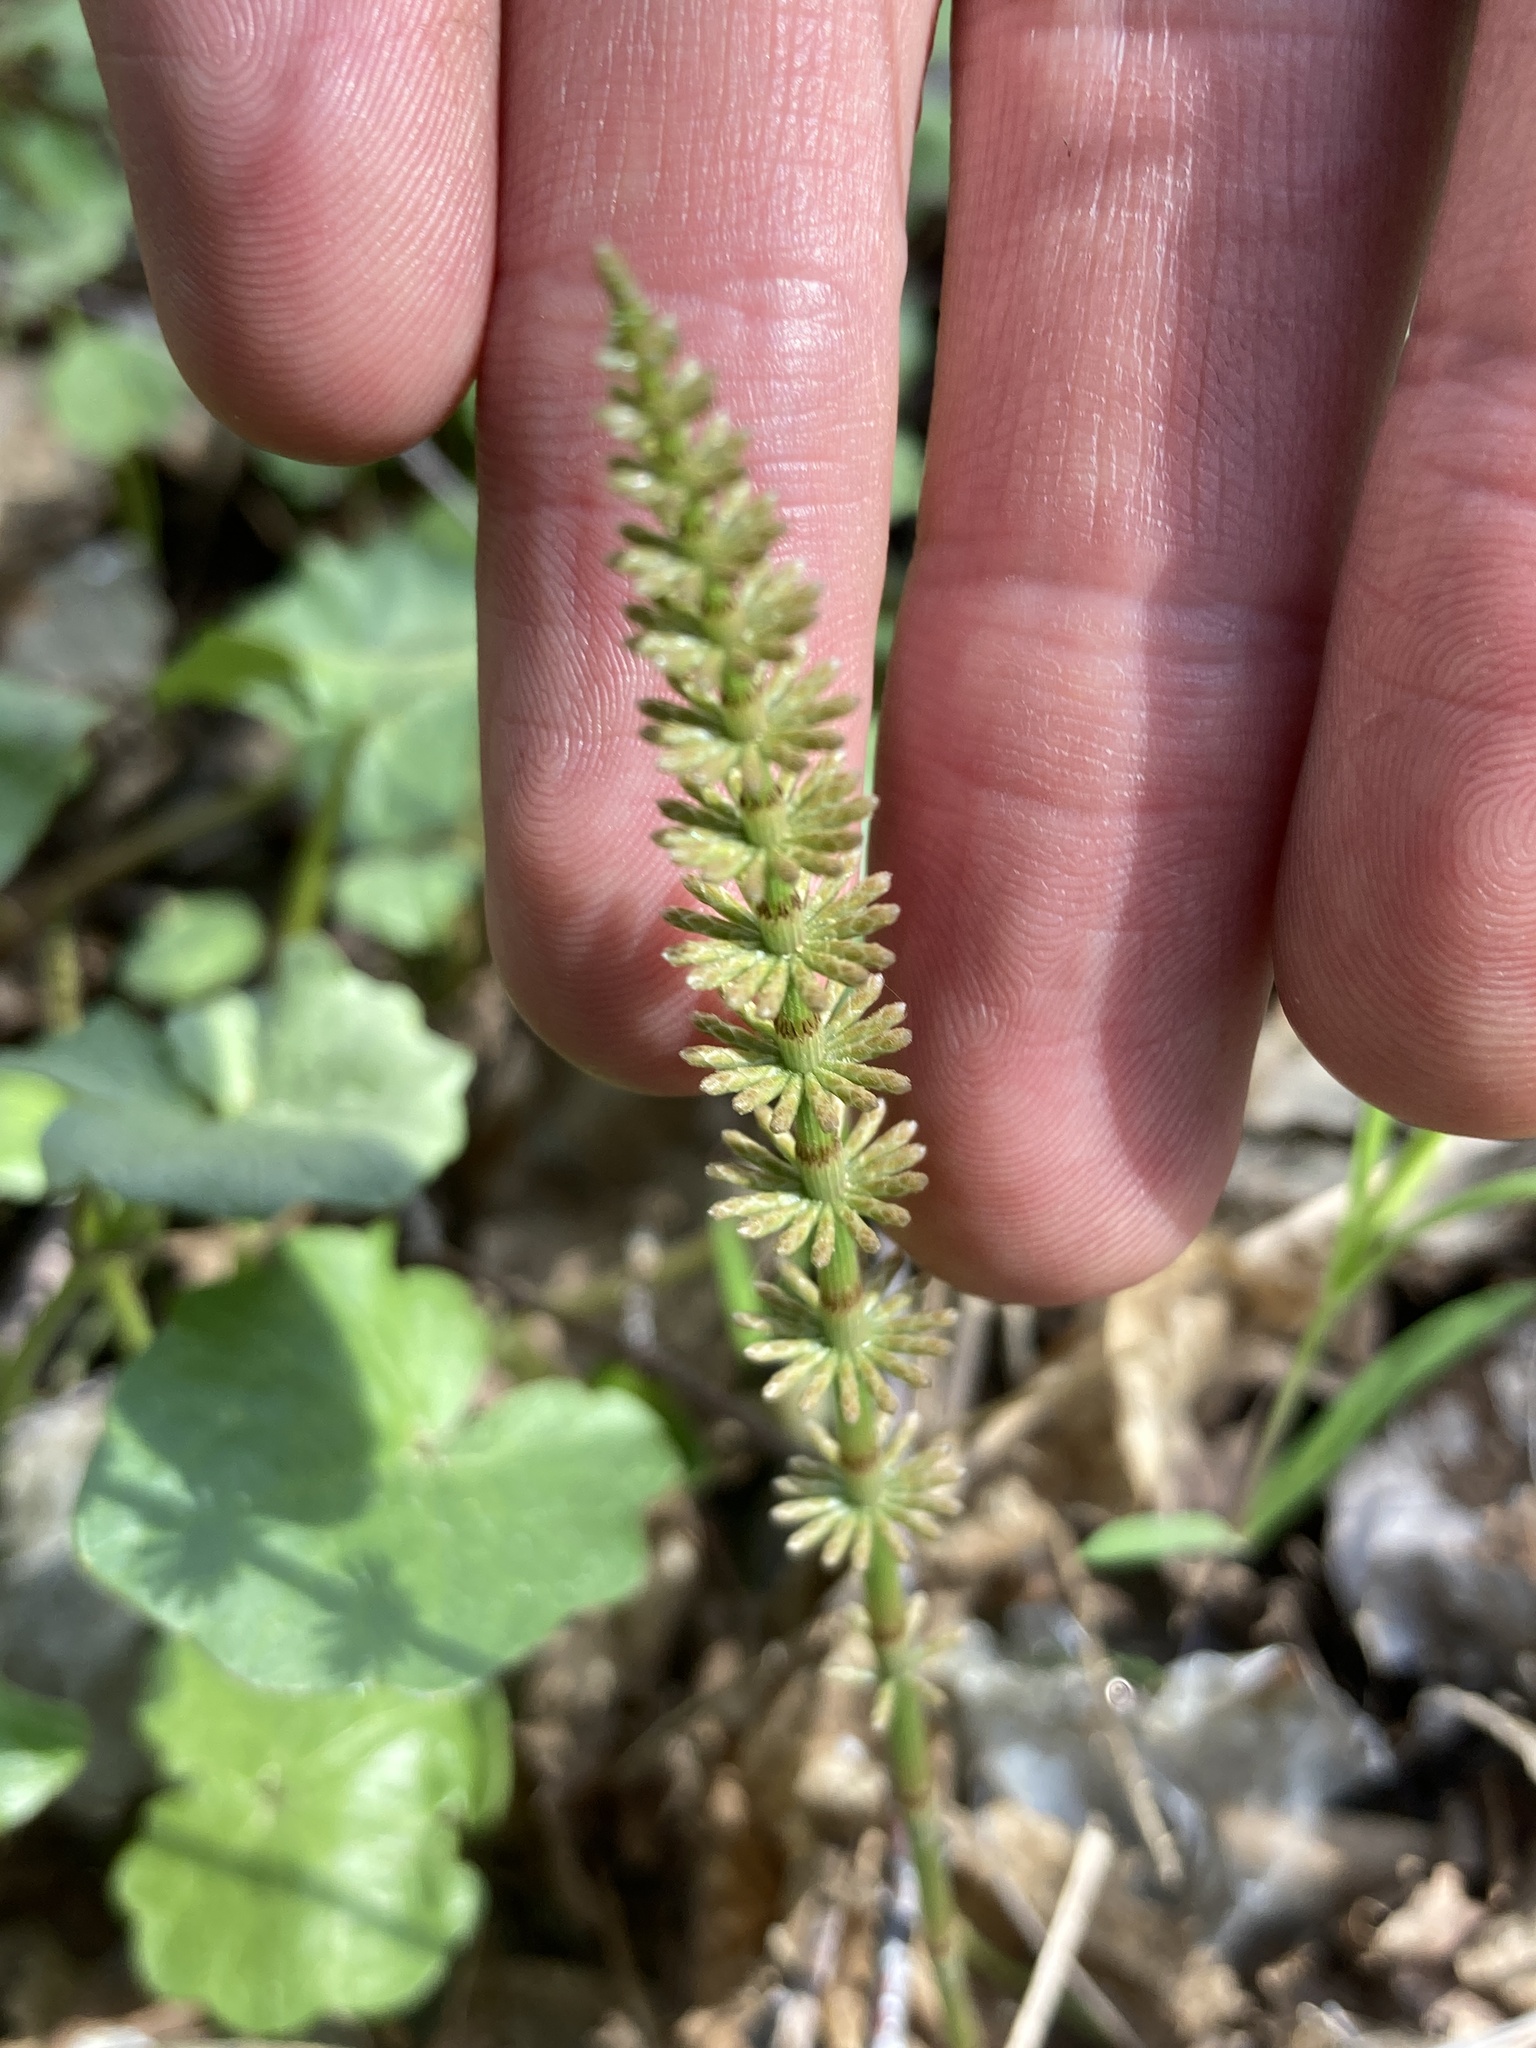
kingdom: Plantae
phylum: Tracheophyta
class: Polypodiopsida
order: Equisetales
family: Equisetaceae
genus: Equisetum
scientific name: Equisetum pratense
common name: Meadow horsetail
